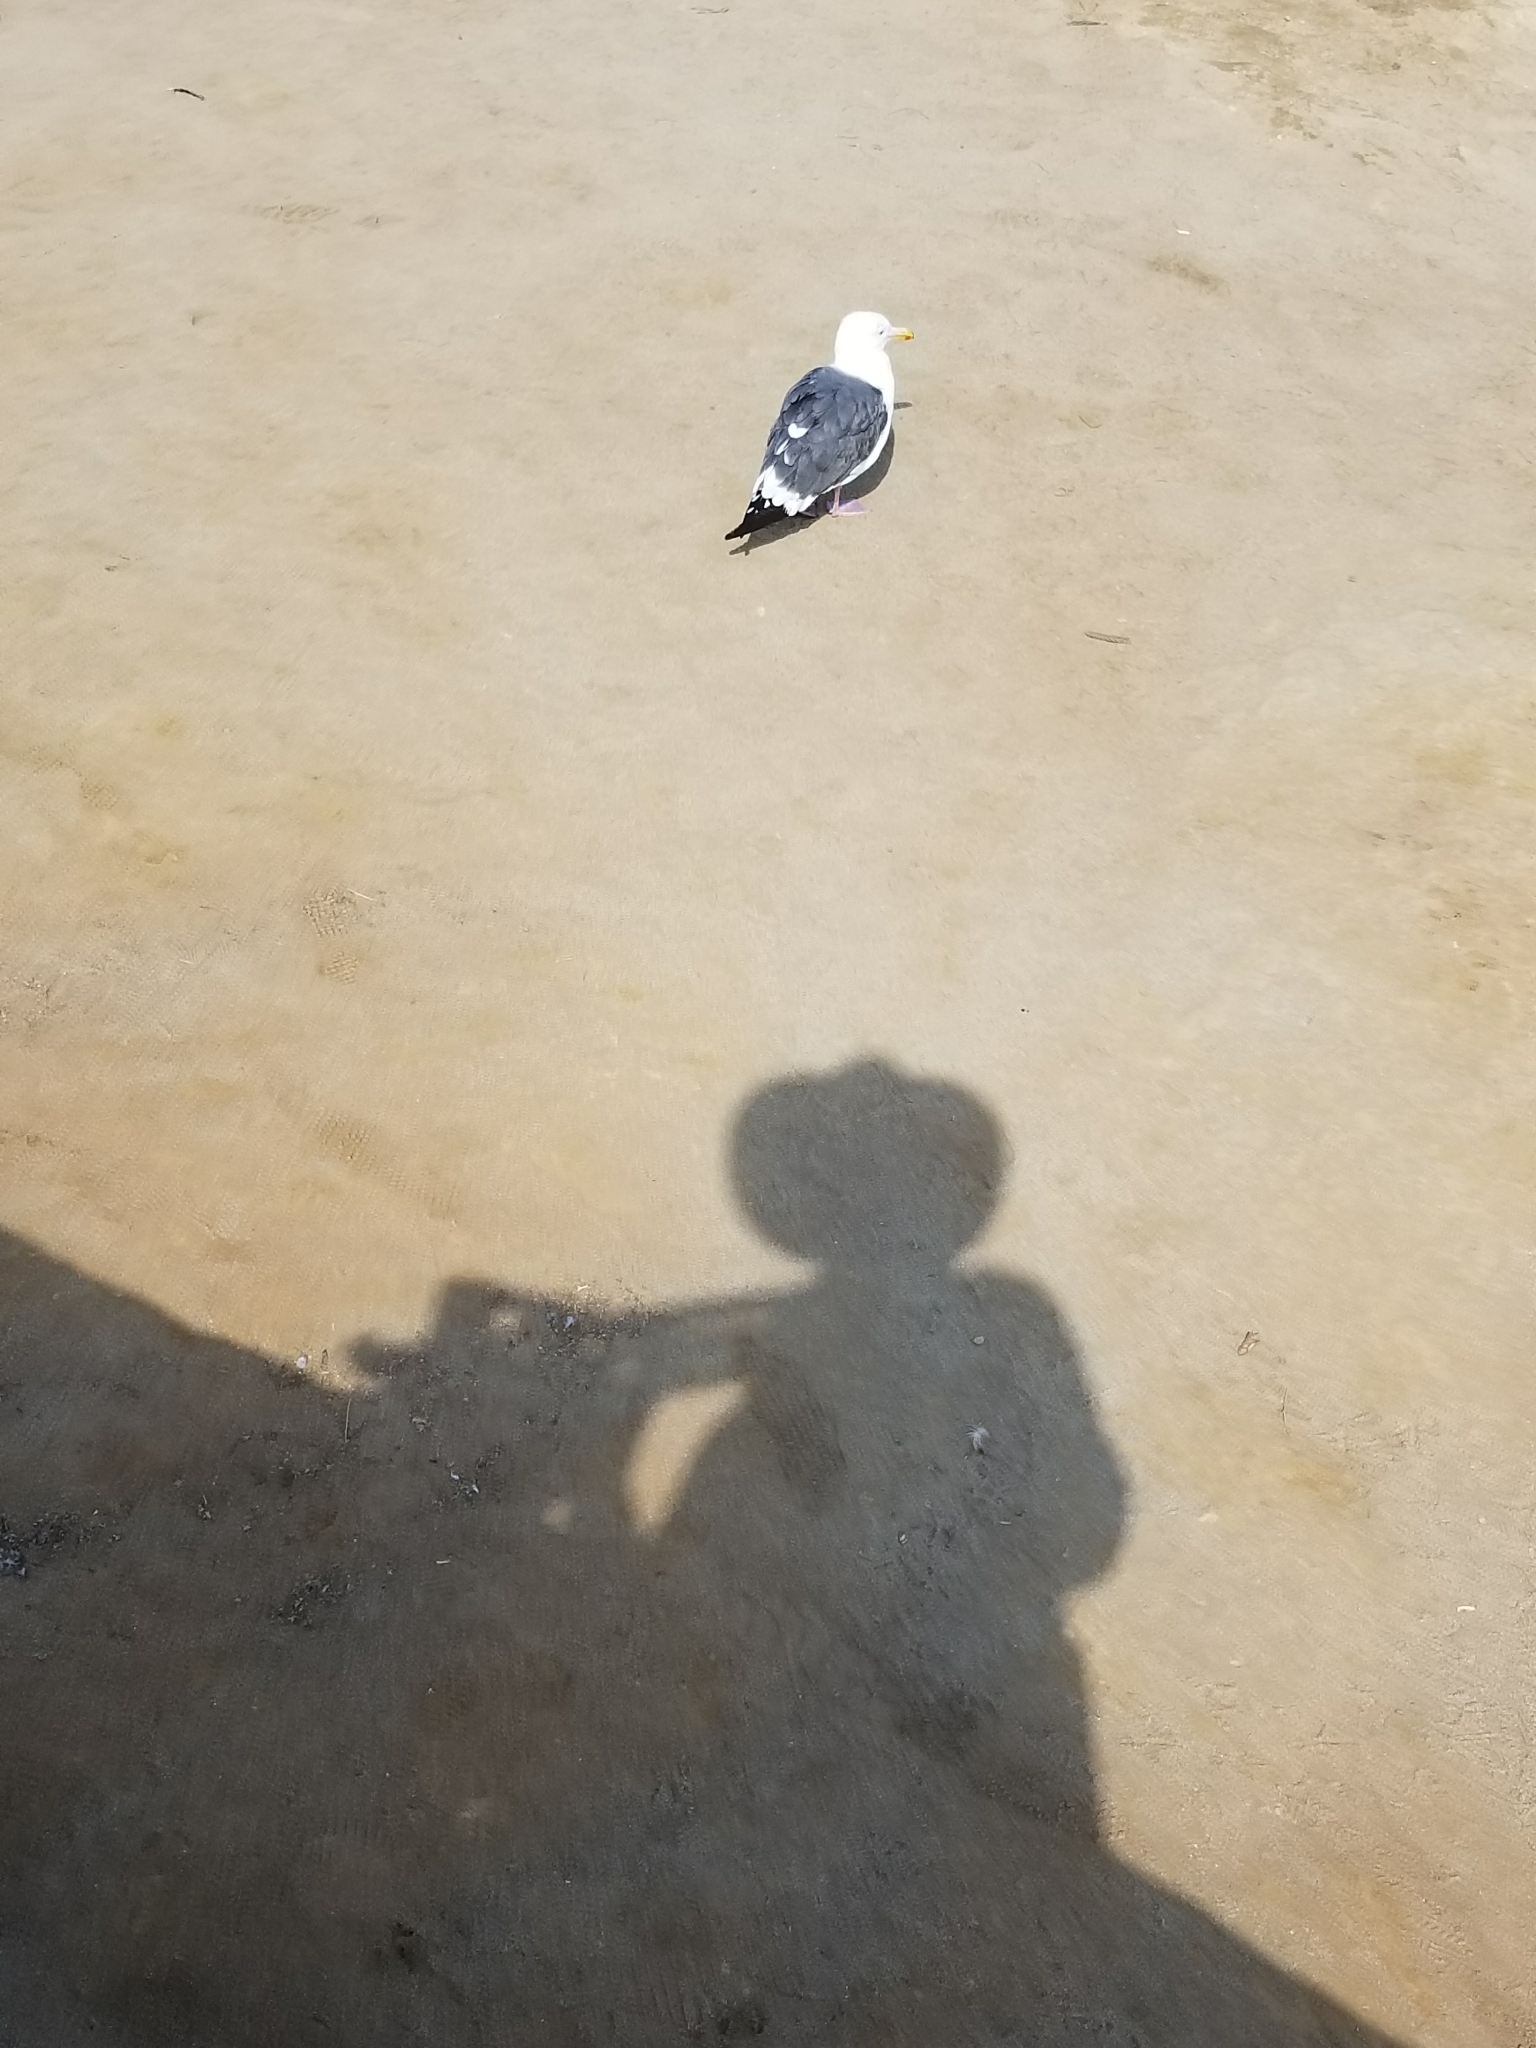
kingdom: Animalia
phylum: Chordata
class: Aves
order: Charadriiformes
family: Laridae
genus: Larus
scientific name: Larus occidentalis
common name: Western gull
